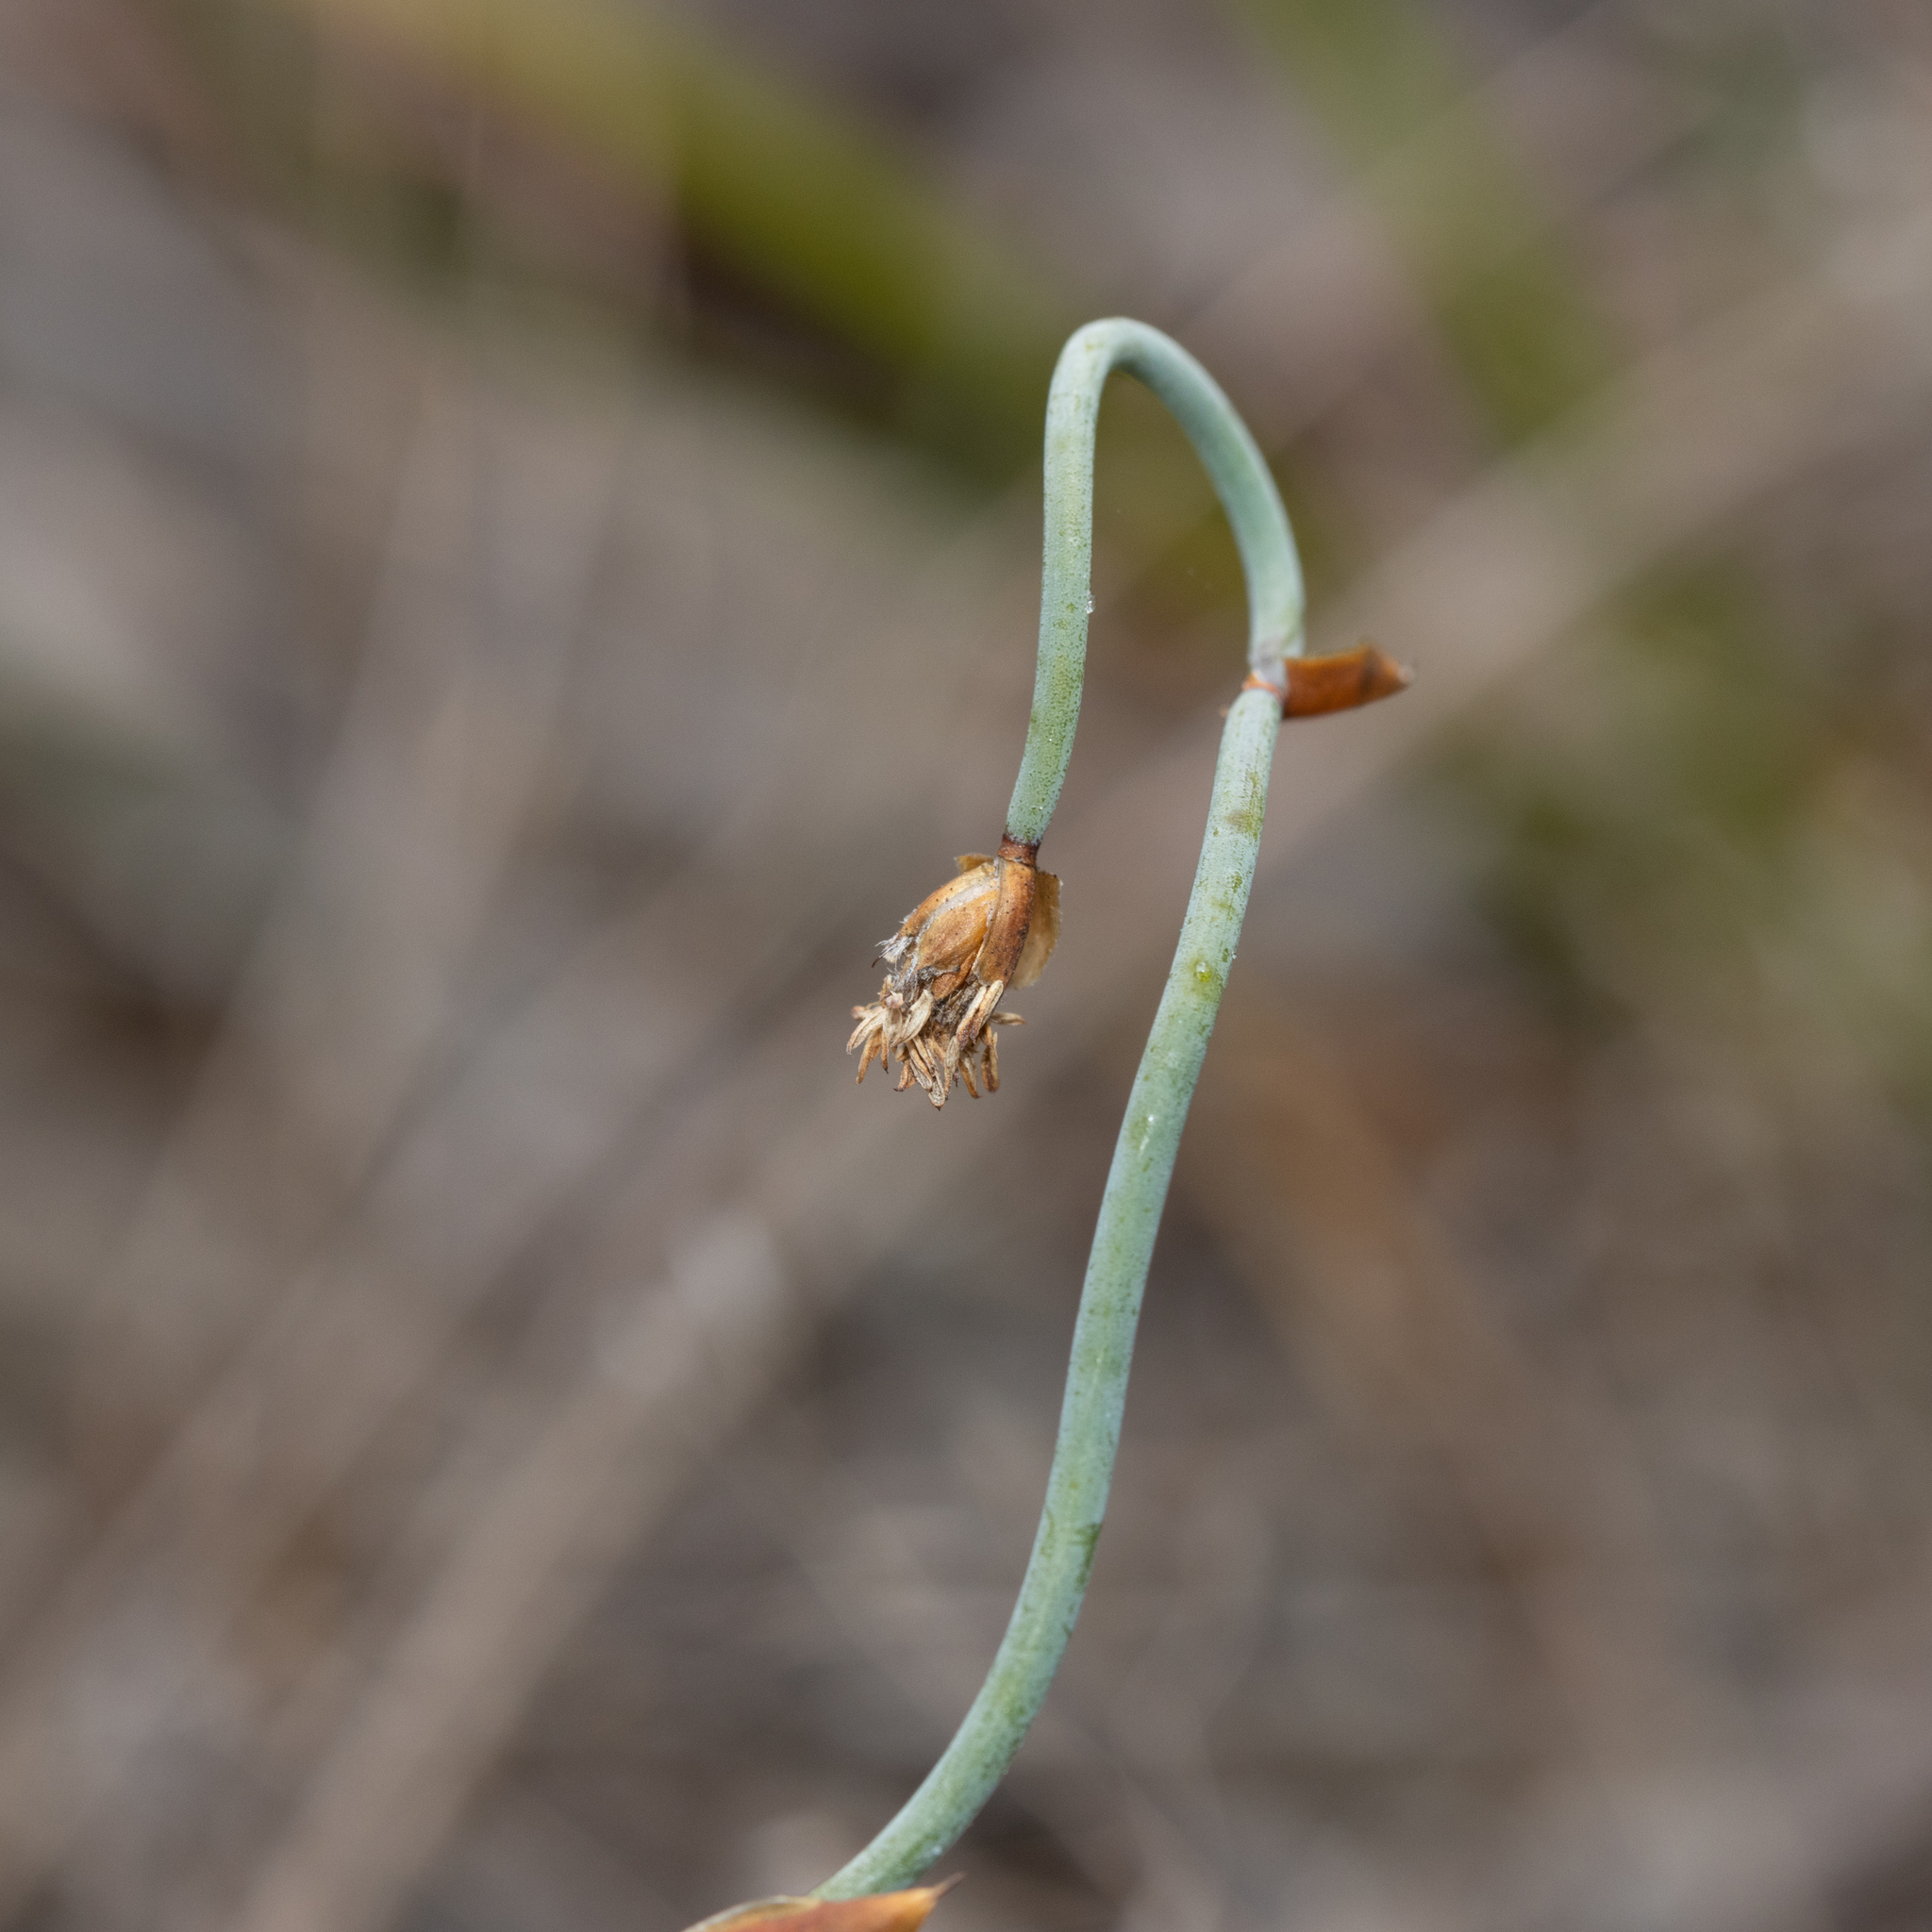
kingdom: Plantae
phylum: Tracheophyta
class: Liliopsida
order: Poales
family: Restionaceae
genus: Lepidobolus
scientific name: Lepidobolus drapetocoleus
